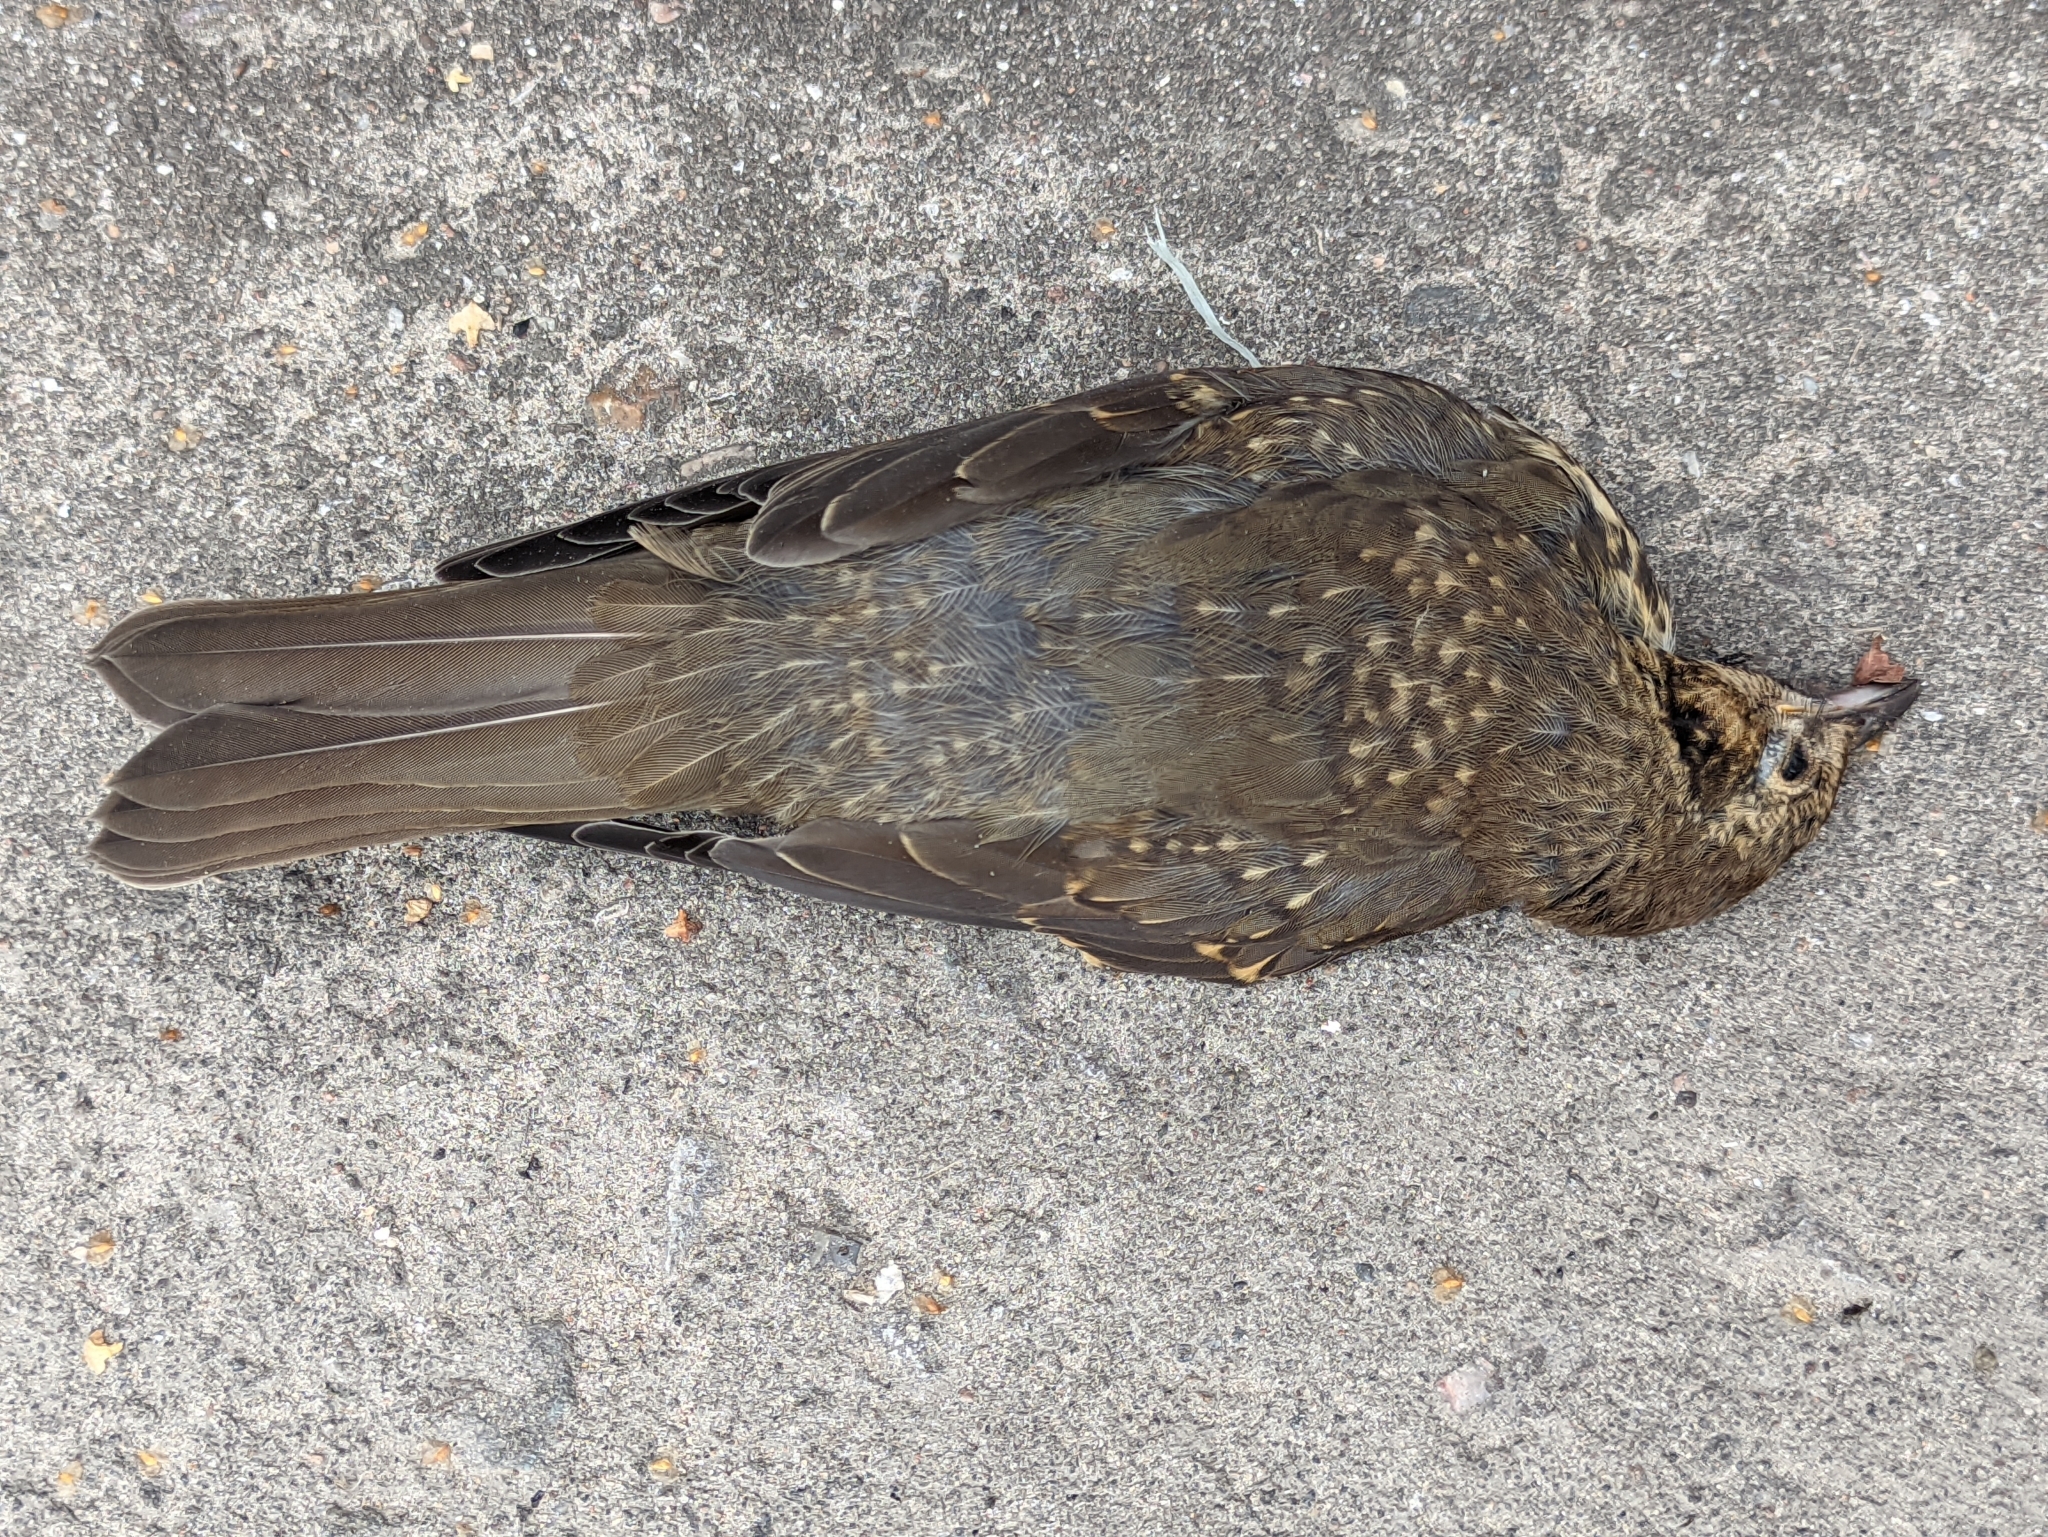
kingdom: Animalia
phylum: Chordata
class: Aves
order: Passeriformes
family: Turdidae
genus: Turdus
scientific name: Turdus philomelos
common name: Song thrush
